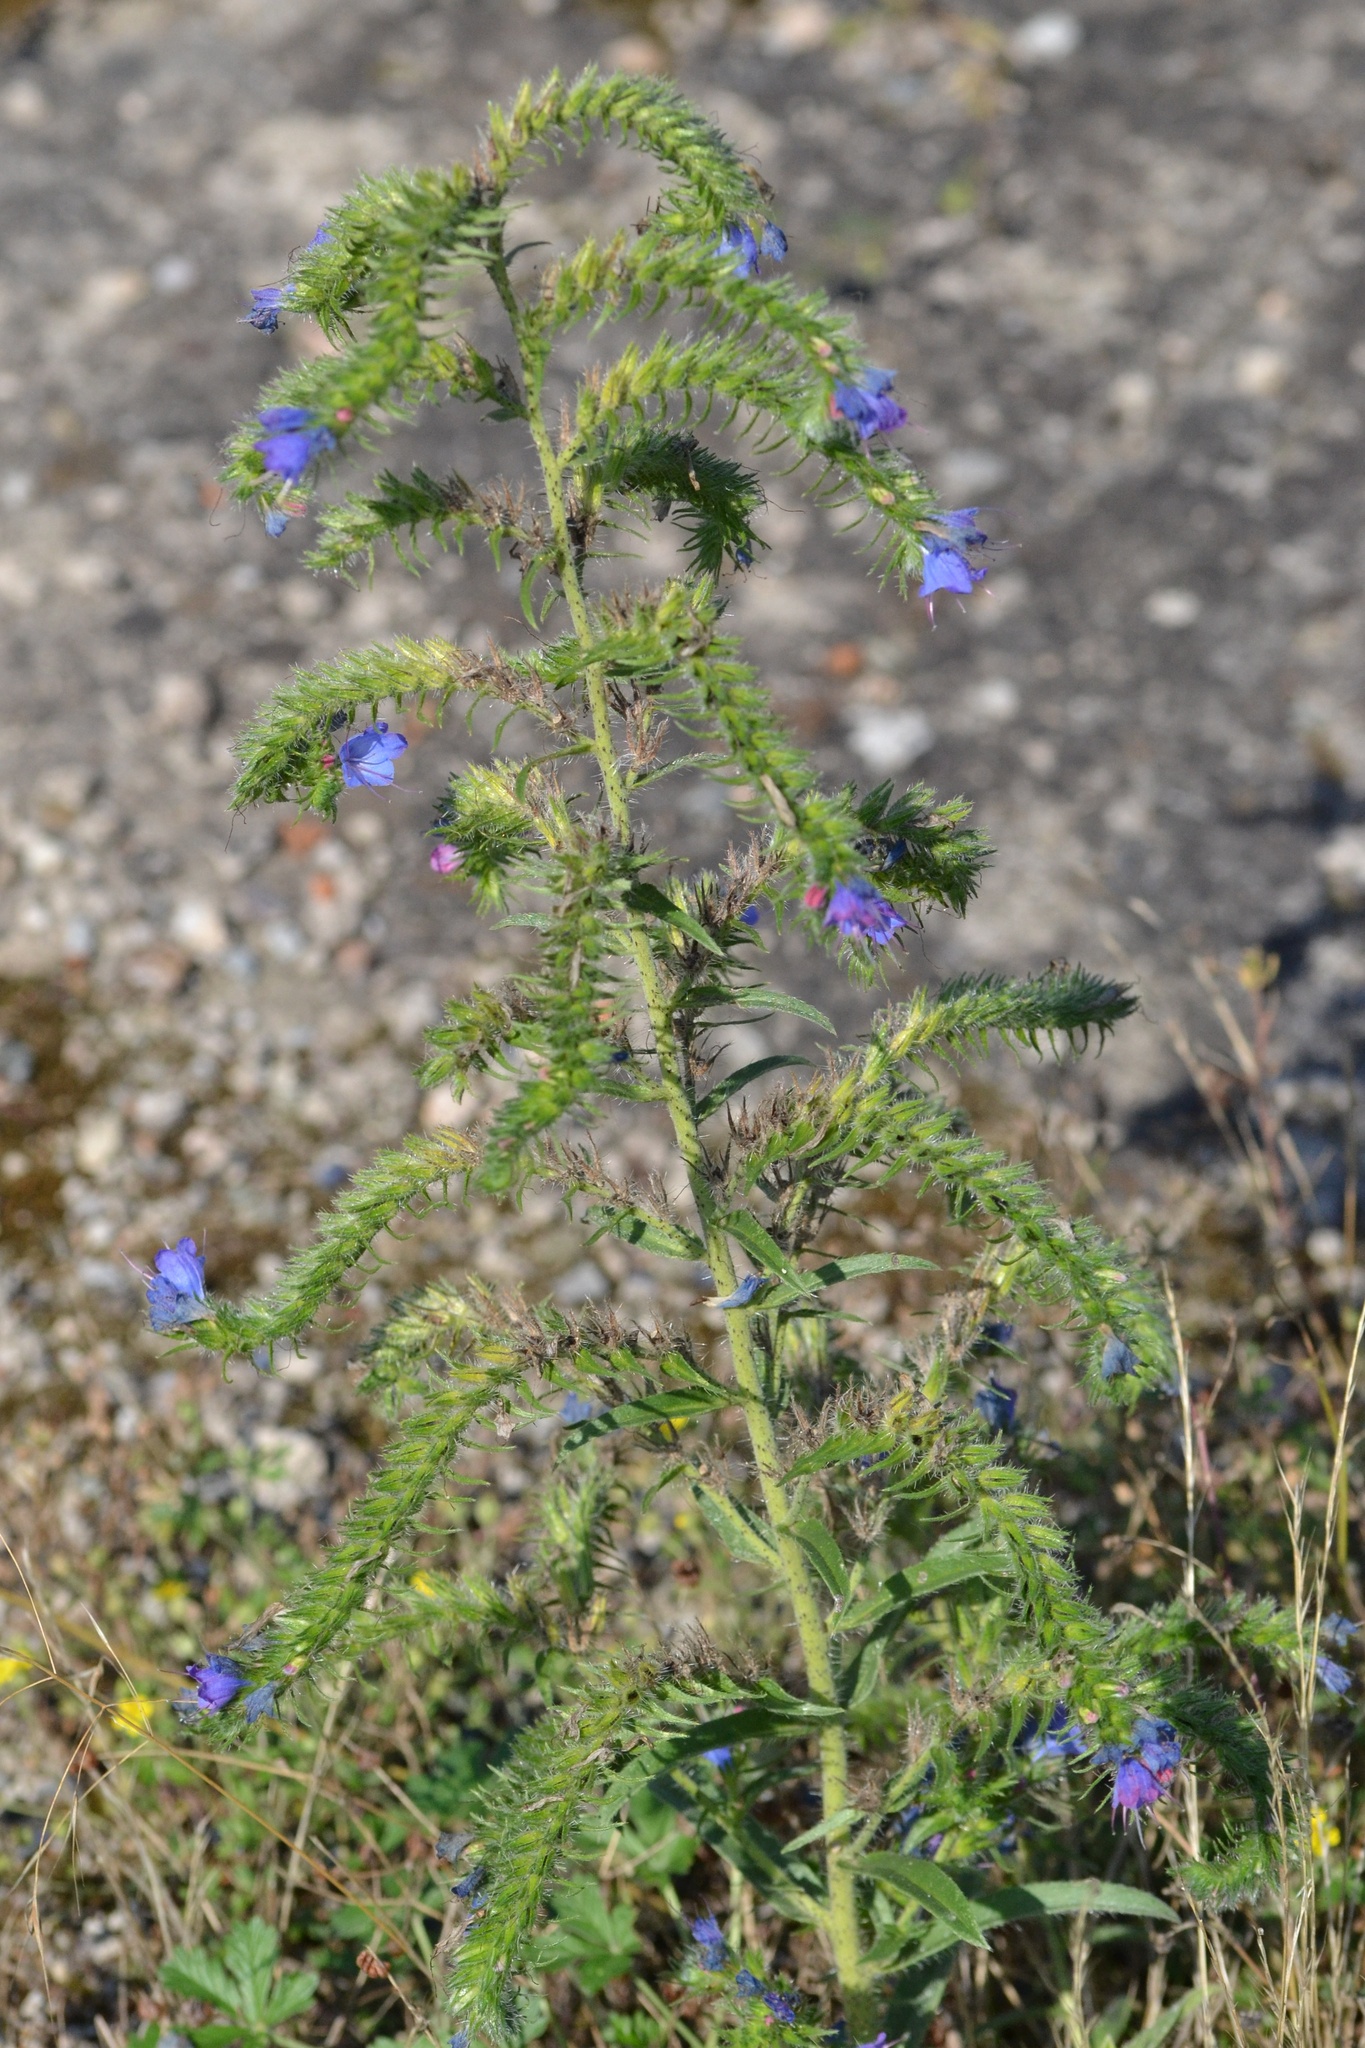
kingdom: Plantae
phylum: Tracheophyta
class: Magnoliopsida
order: Boraginales
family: Boraginaceae
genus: Echium
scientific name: Echium vulgare
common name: Common viper's bugloss
